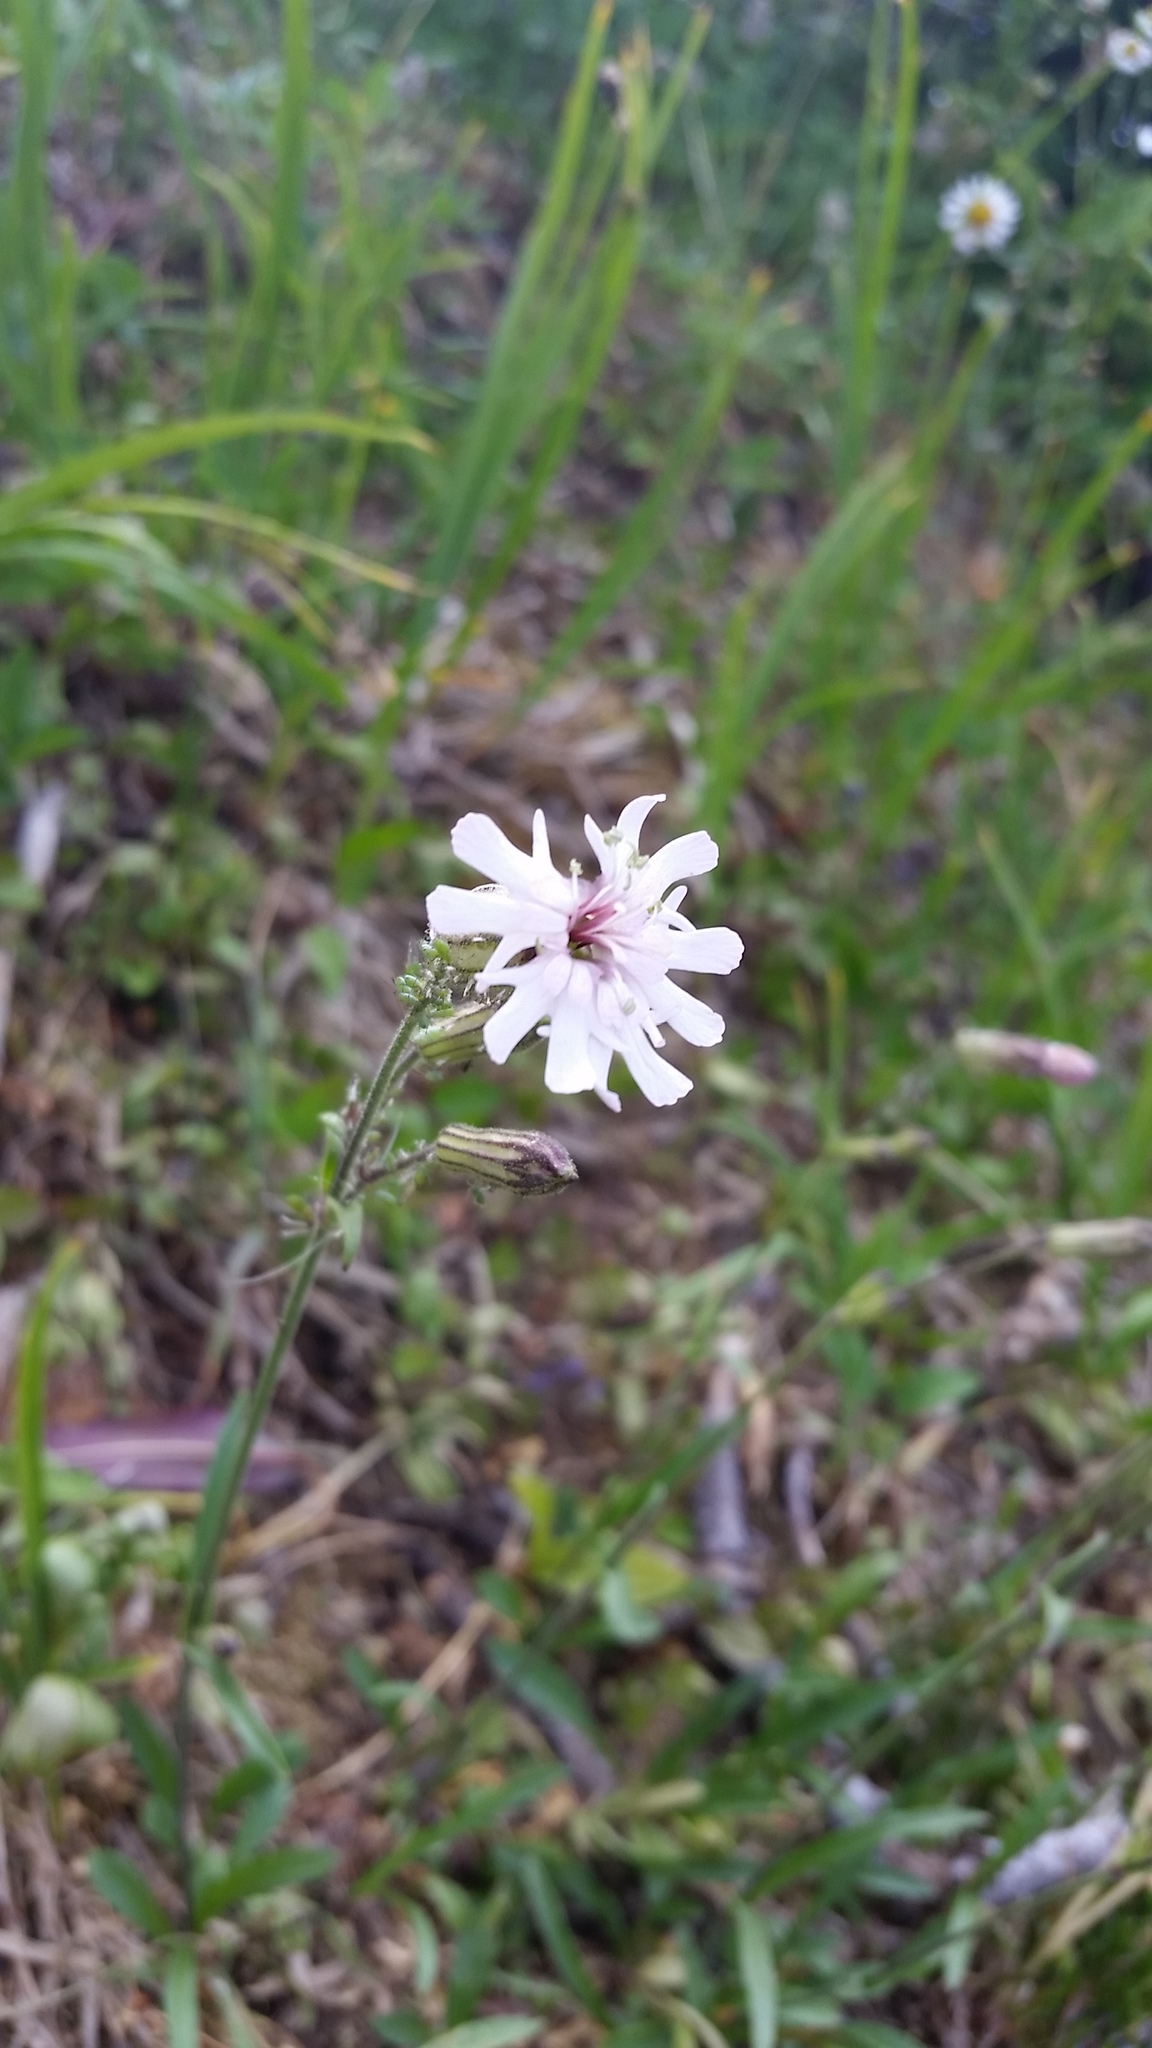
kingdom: Plantae
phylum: Tracheophyta
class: Magnoliopsida
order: Caryophyllales
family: Caryophyllaceae
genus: Silene
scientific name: Silene parryi
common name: Parry's campion
